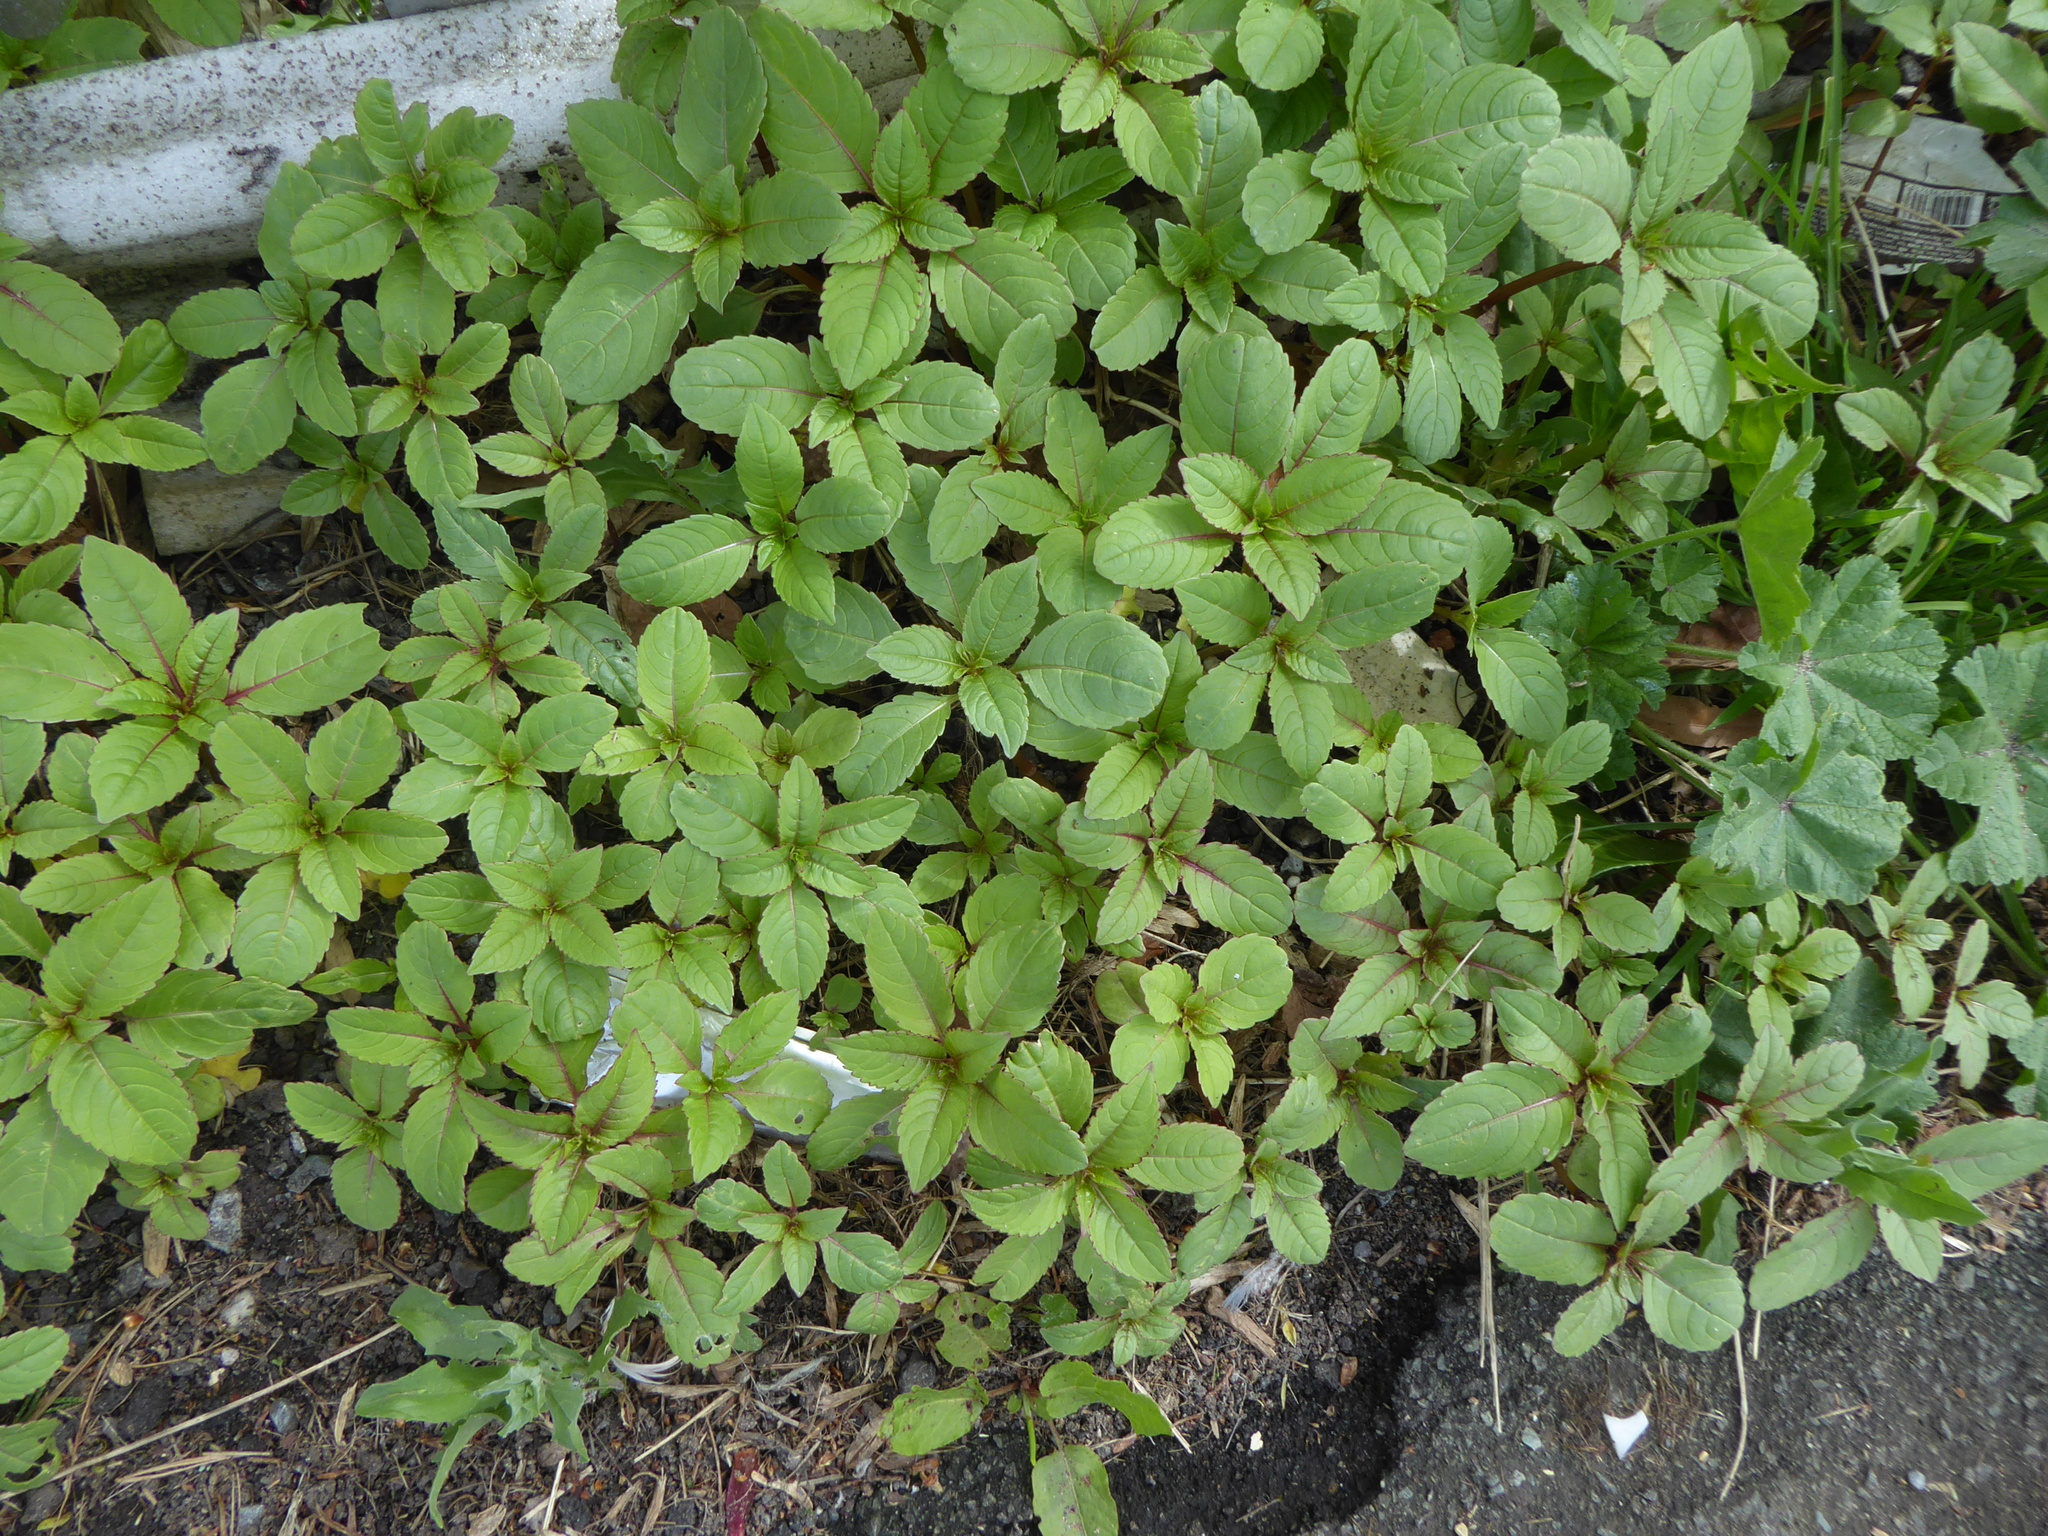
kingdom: Plantae
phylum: Tracheophyta
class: Magnoliopsida
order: Ericales
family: Balsaminaceae
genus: Impatiens
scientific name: Impatiens glandulifera
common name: Himalayan balsam
